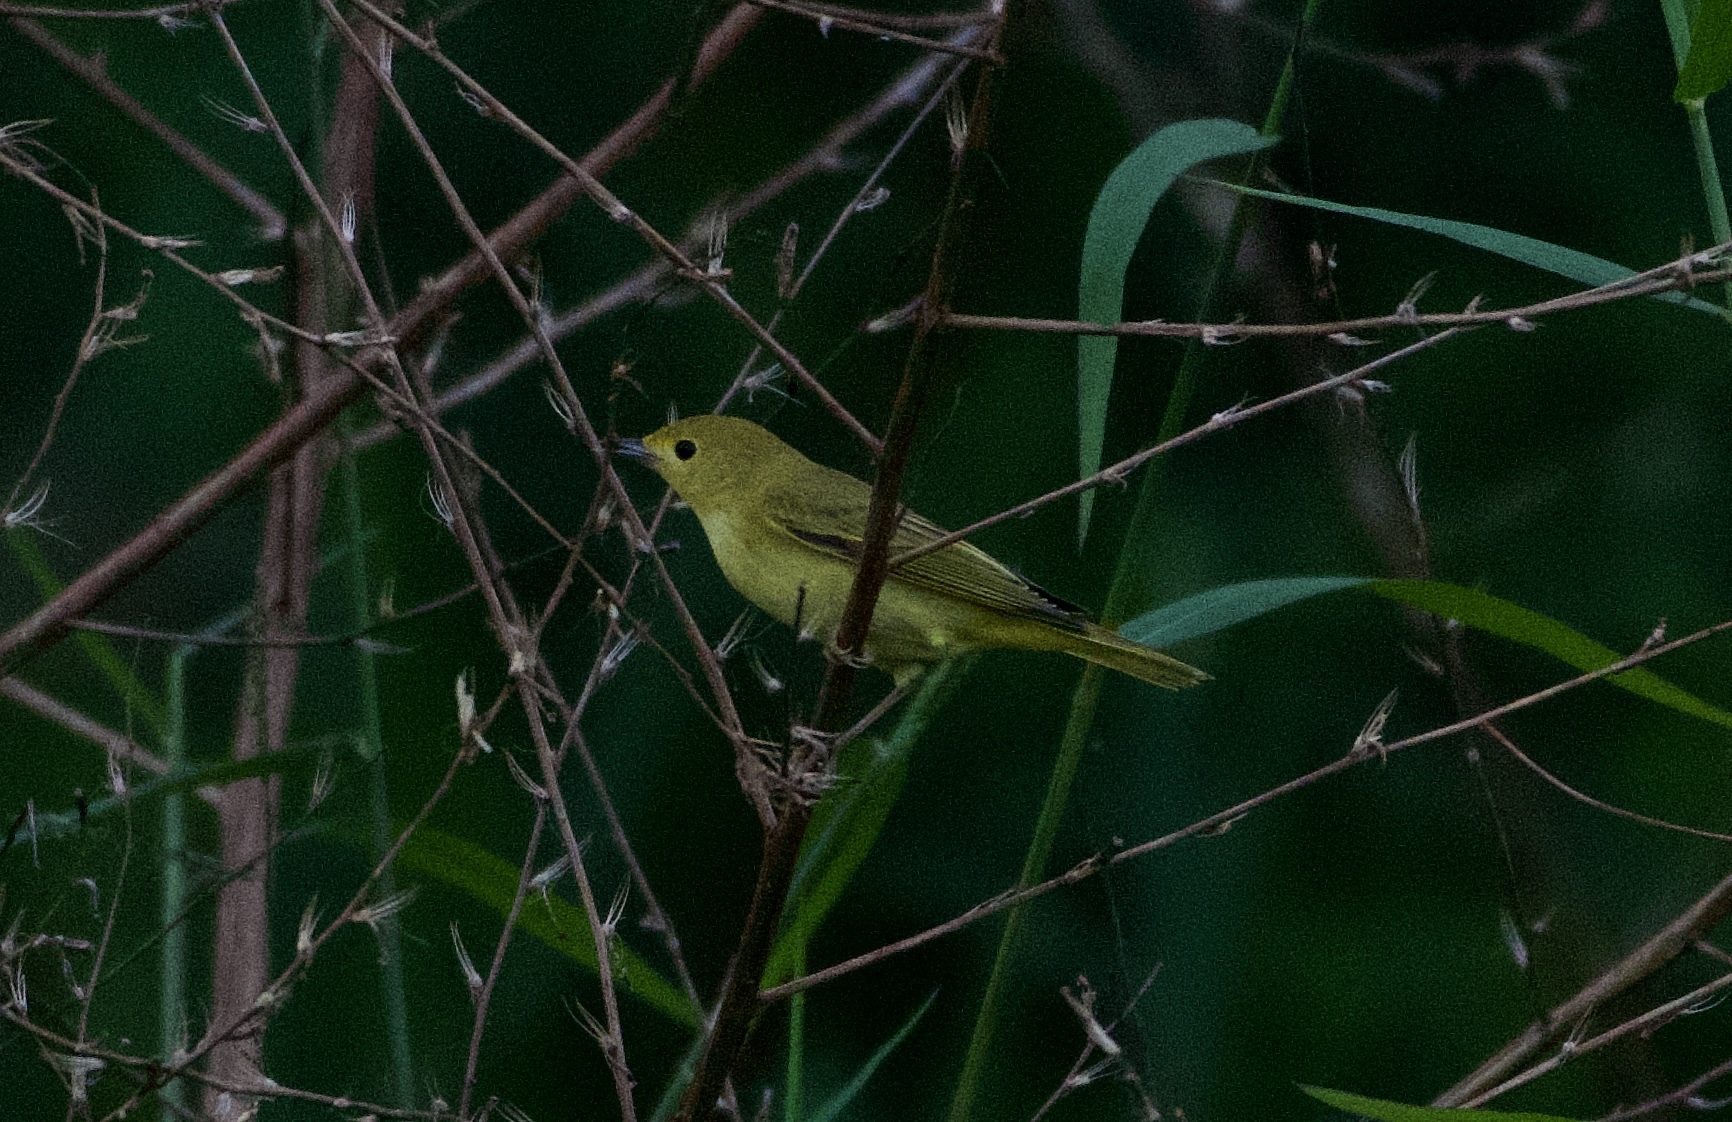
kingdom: Animalia
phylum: Chordata
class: Aves
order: Passeriformes
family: Parulidae
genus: Setophaga
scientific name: Setophaga petechia
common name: Yellow warbler
